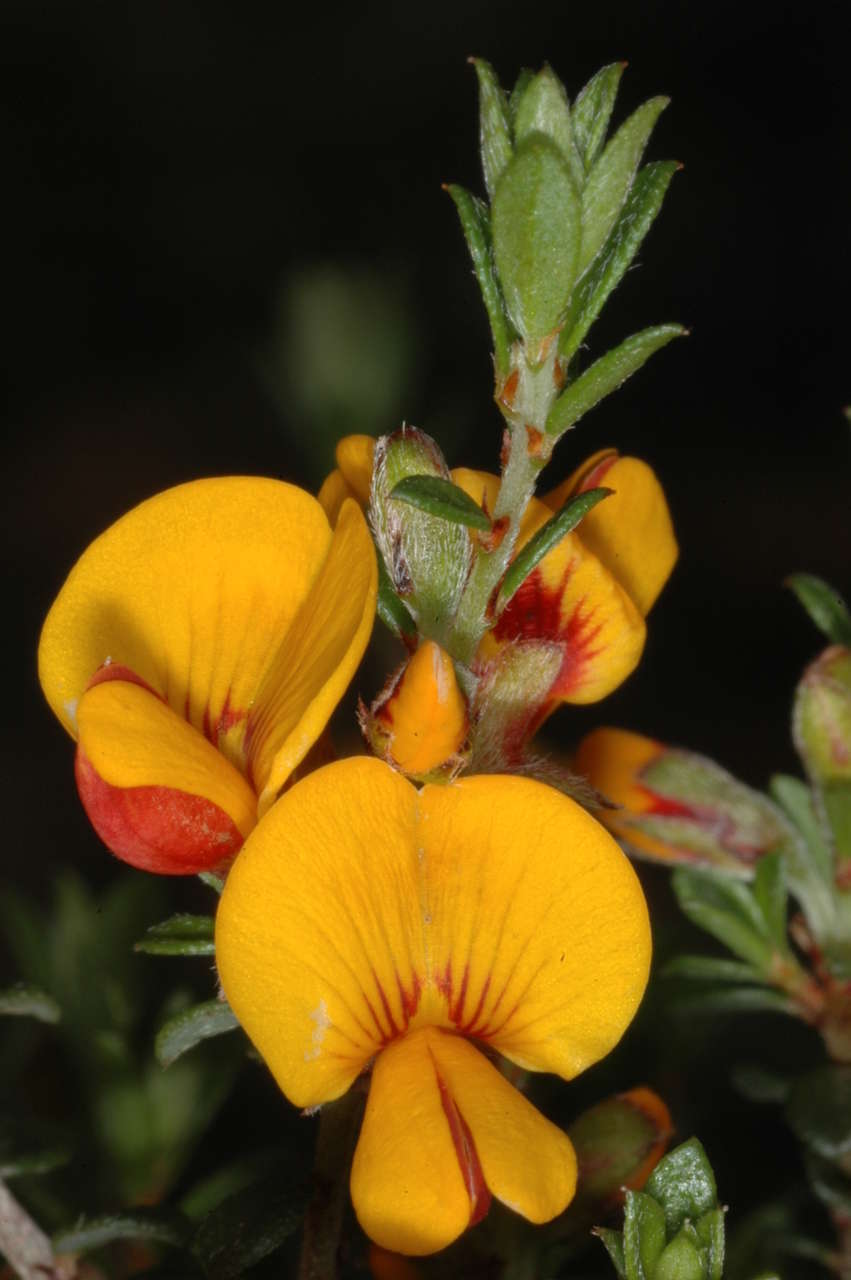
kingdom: Plantae
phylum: Tracheophyta
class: Magnoliopsida
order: Fabales
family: Fabaceae
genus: Pultenaea
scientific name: Pultenaea gunnii
